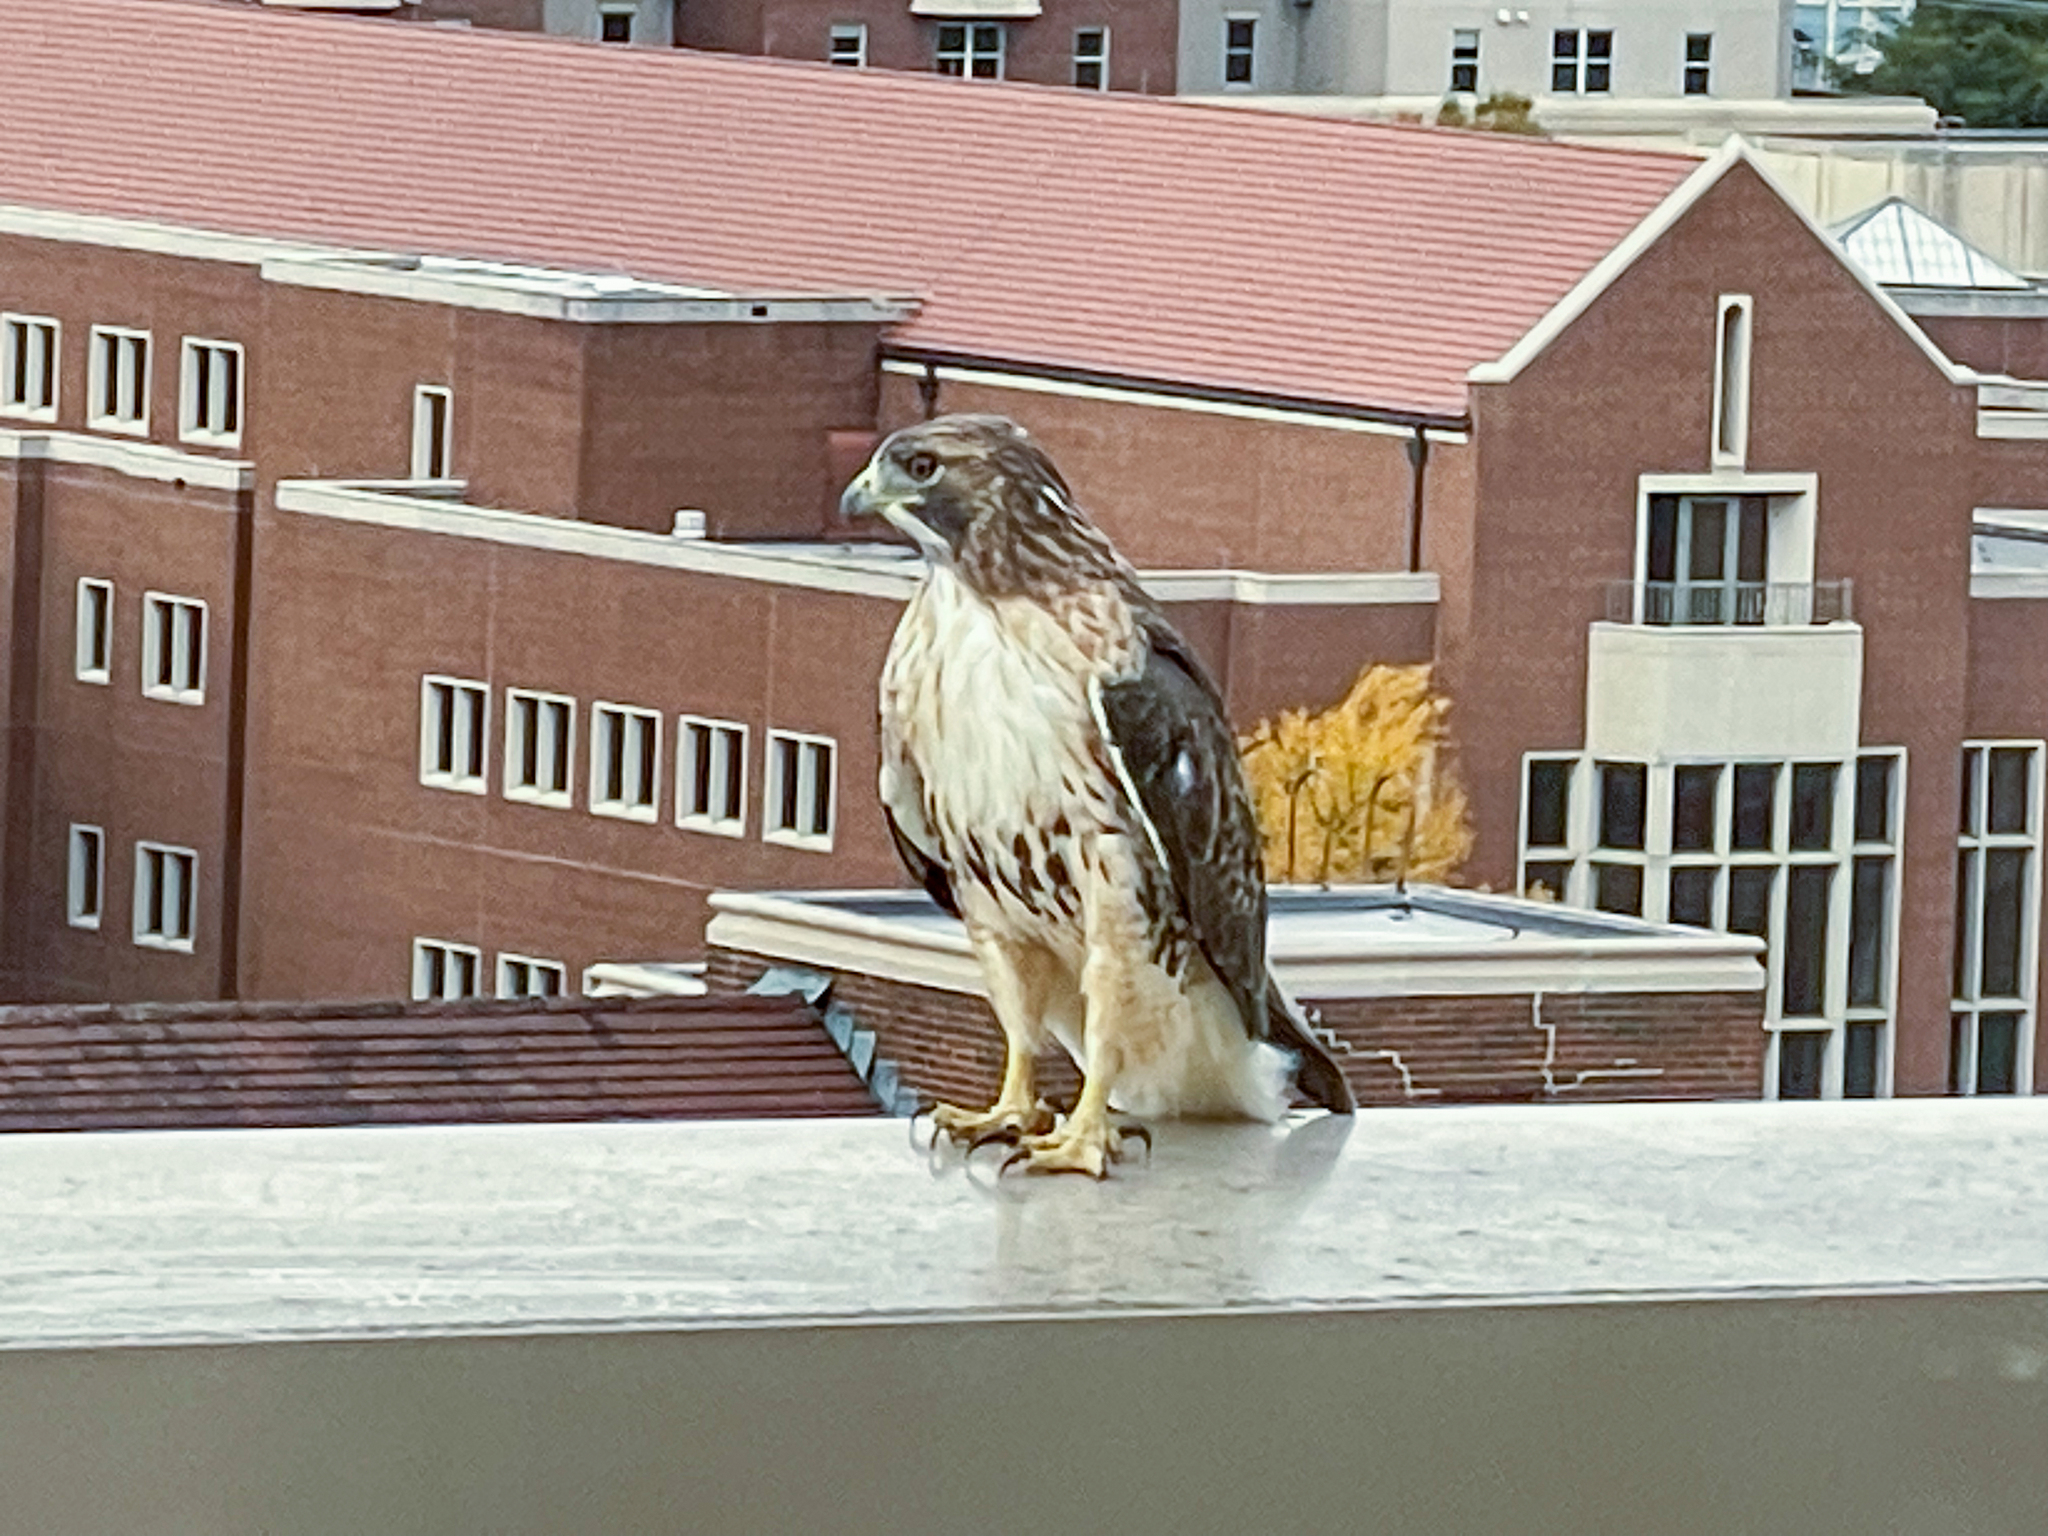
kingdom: Animalia
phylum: Chordata
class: Aves
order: Accipitriformes
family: Accipitridae
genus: Buteo
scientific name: Buteo jamaicensis
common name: Red-tailed hawk
